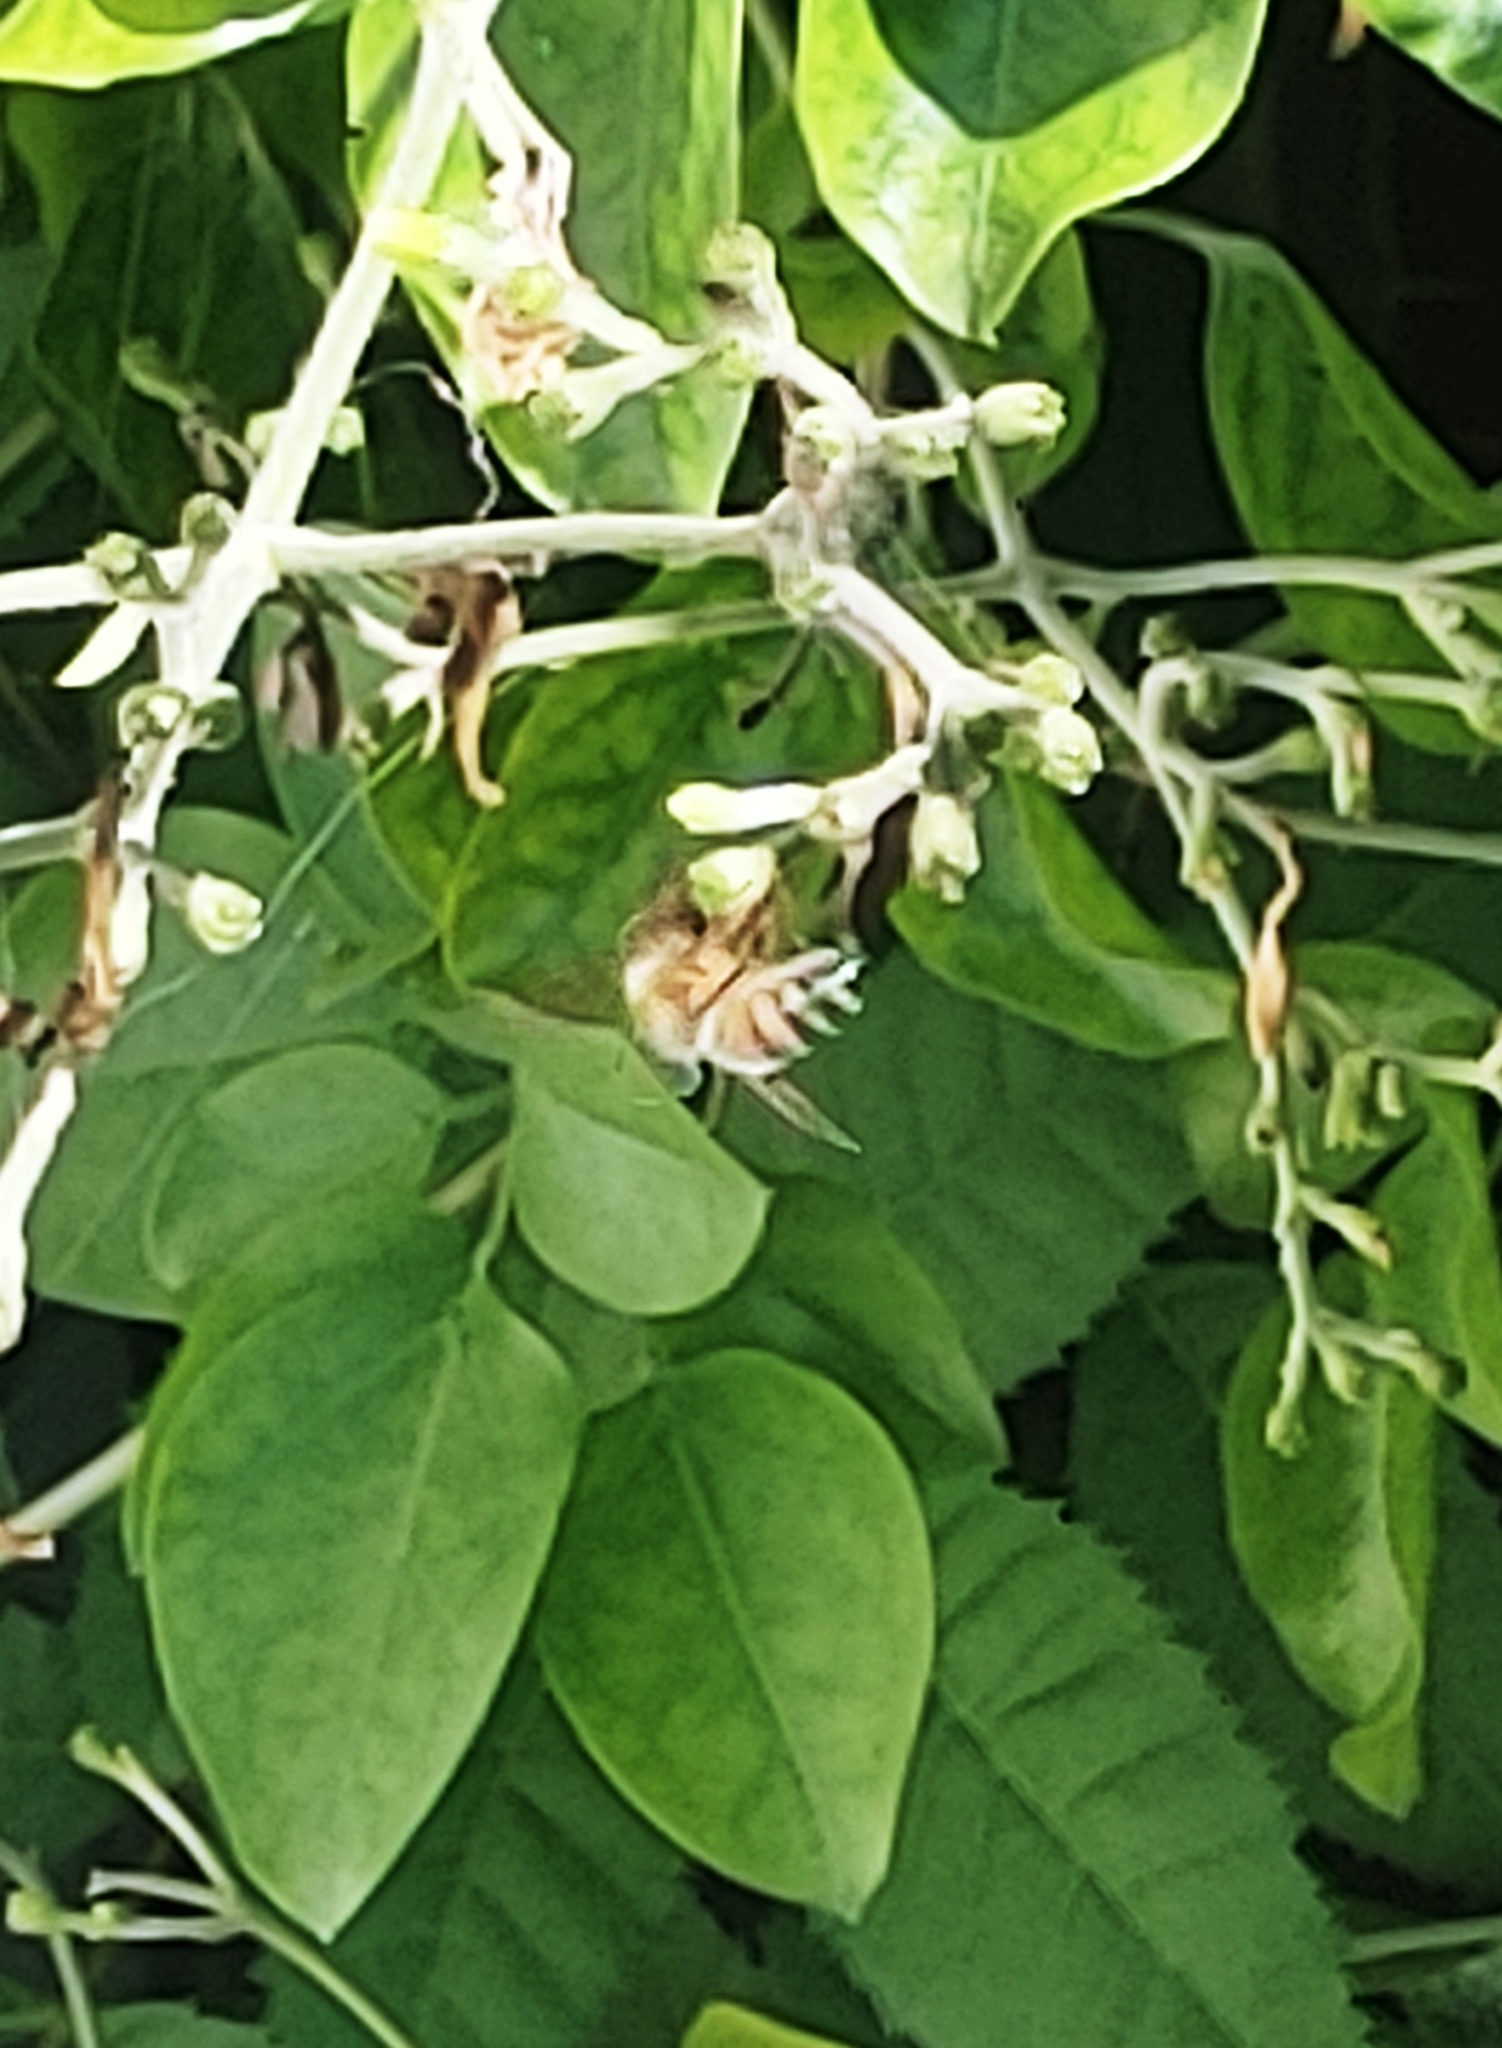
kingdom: Animalia
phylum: Arthropoda
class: Insecta
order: Hymenoptera
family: Apidae
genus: Apis
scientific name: Apis mellifera
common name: Honey bee
